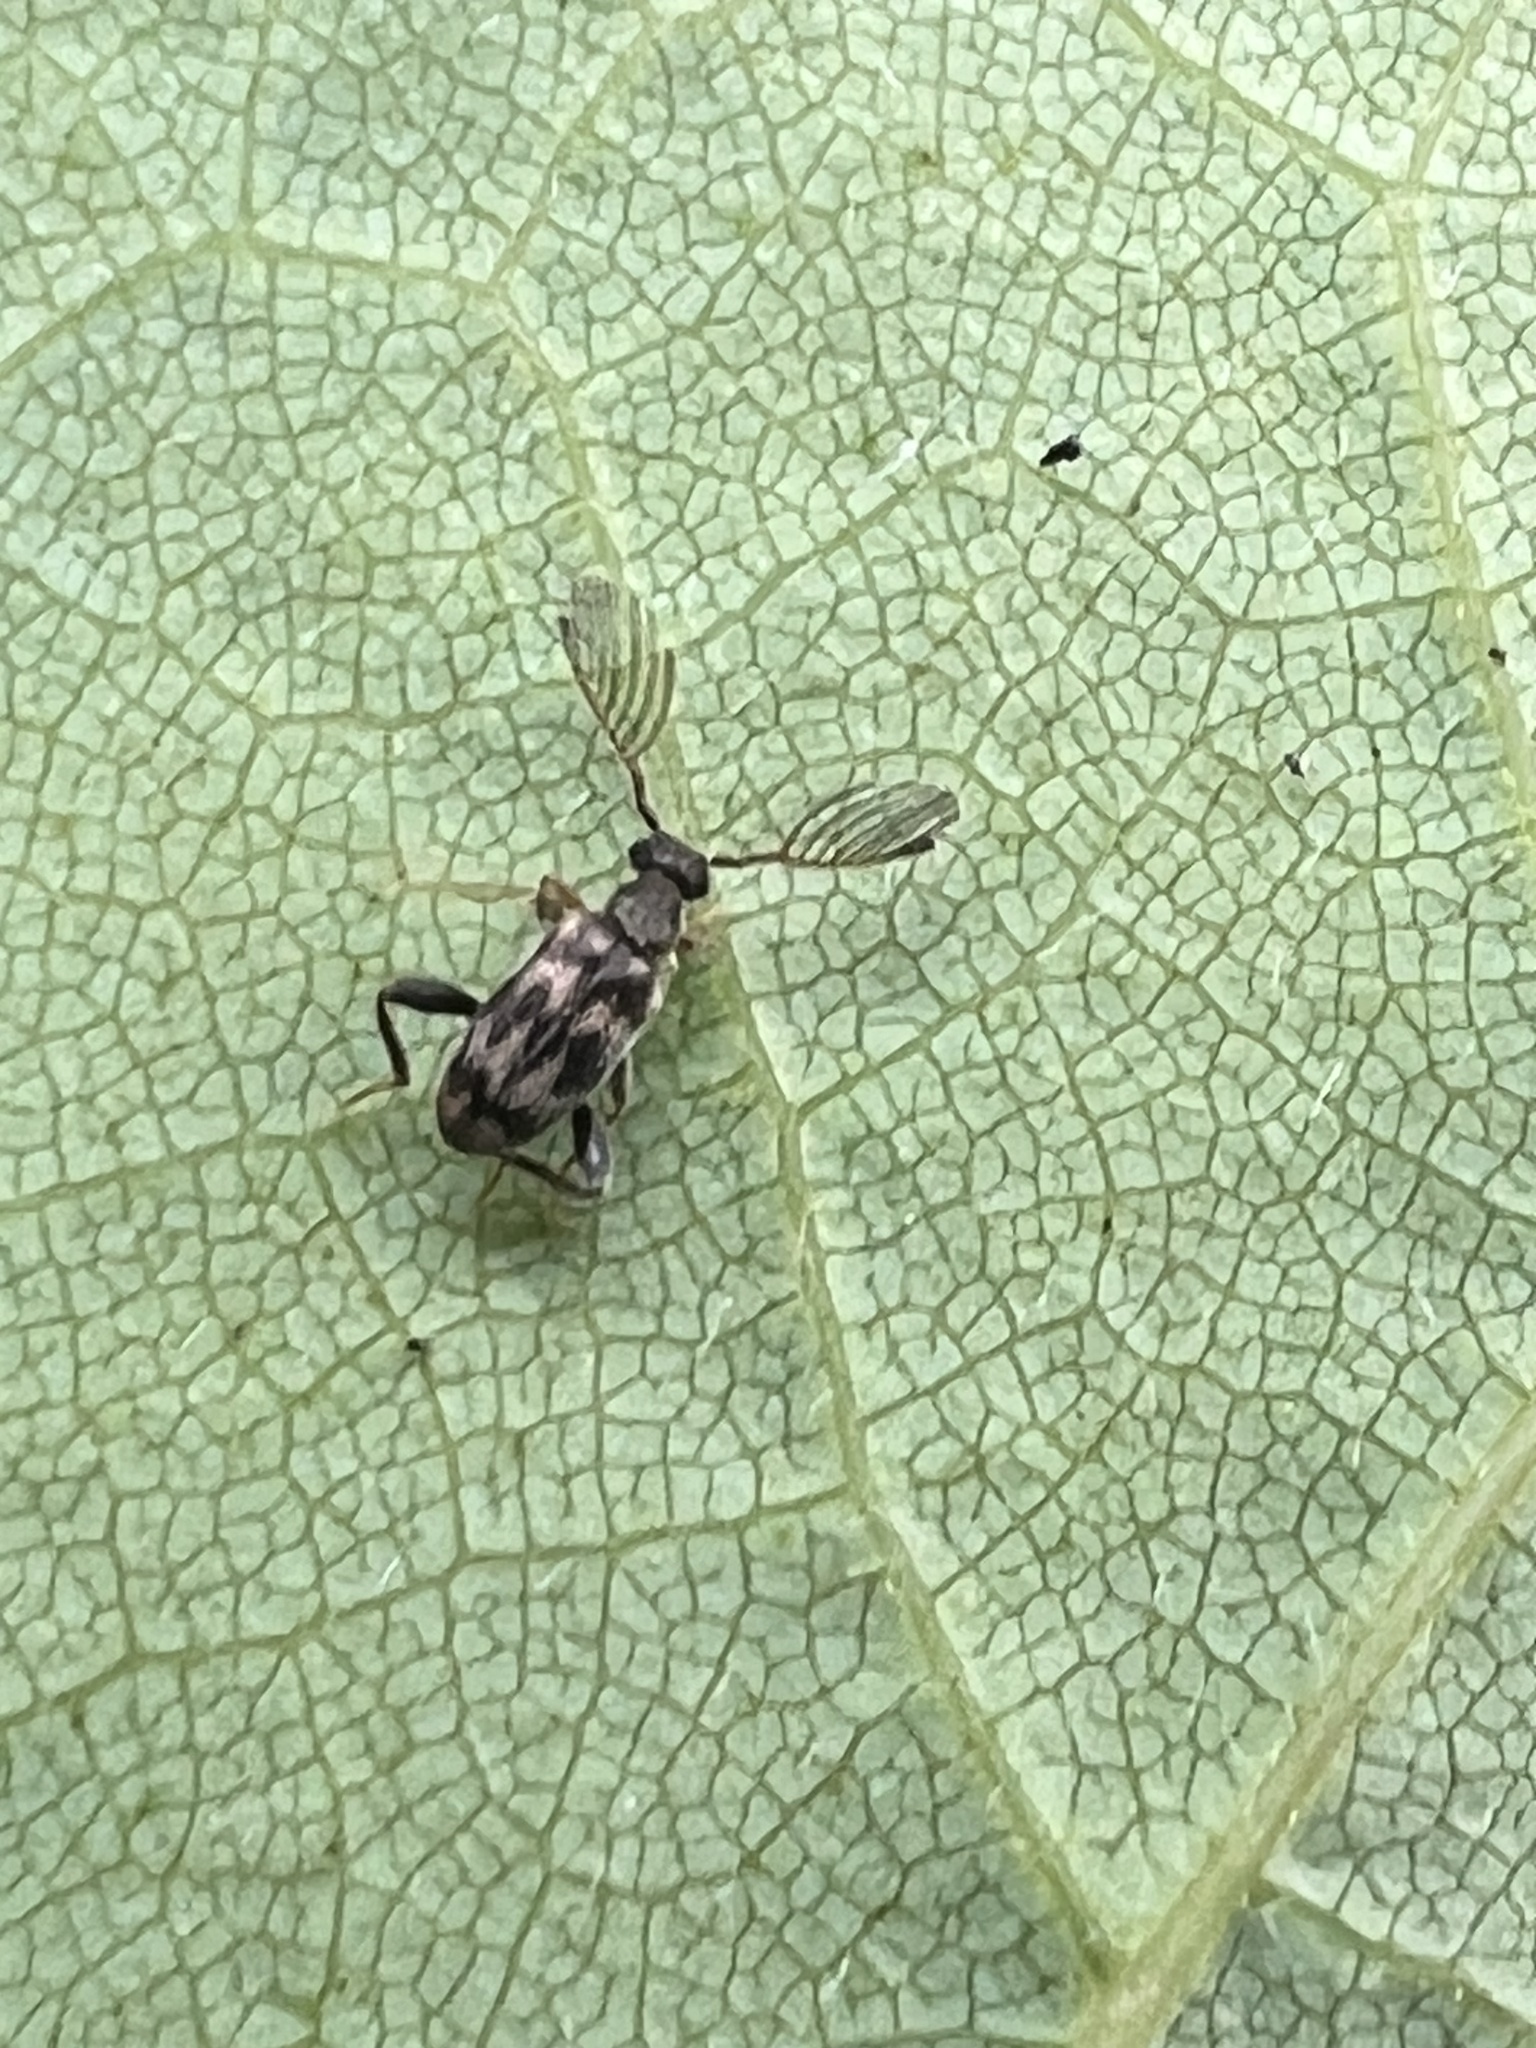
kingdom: Animalia
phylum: Arthropoda
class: Insecta
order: Coleoptera
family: Aderidae
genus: Emelinus
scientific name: Emelinus melsheimeri
